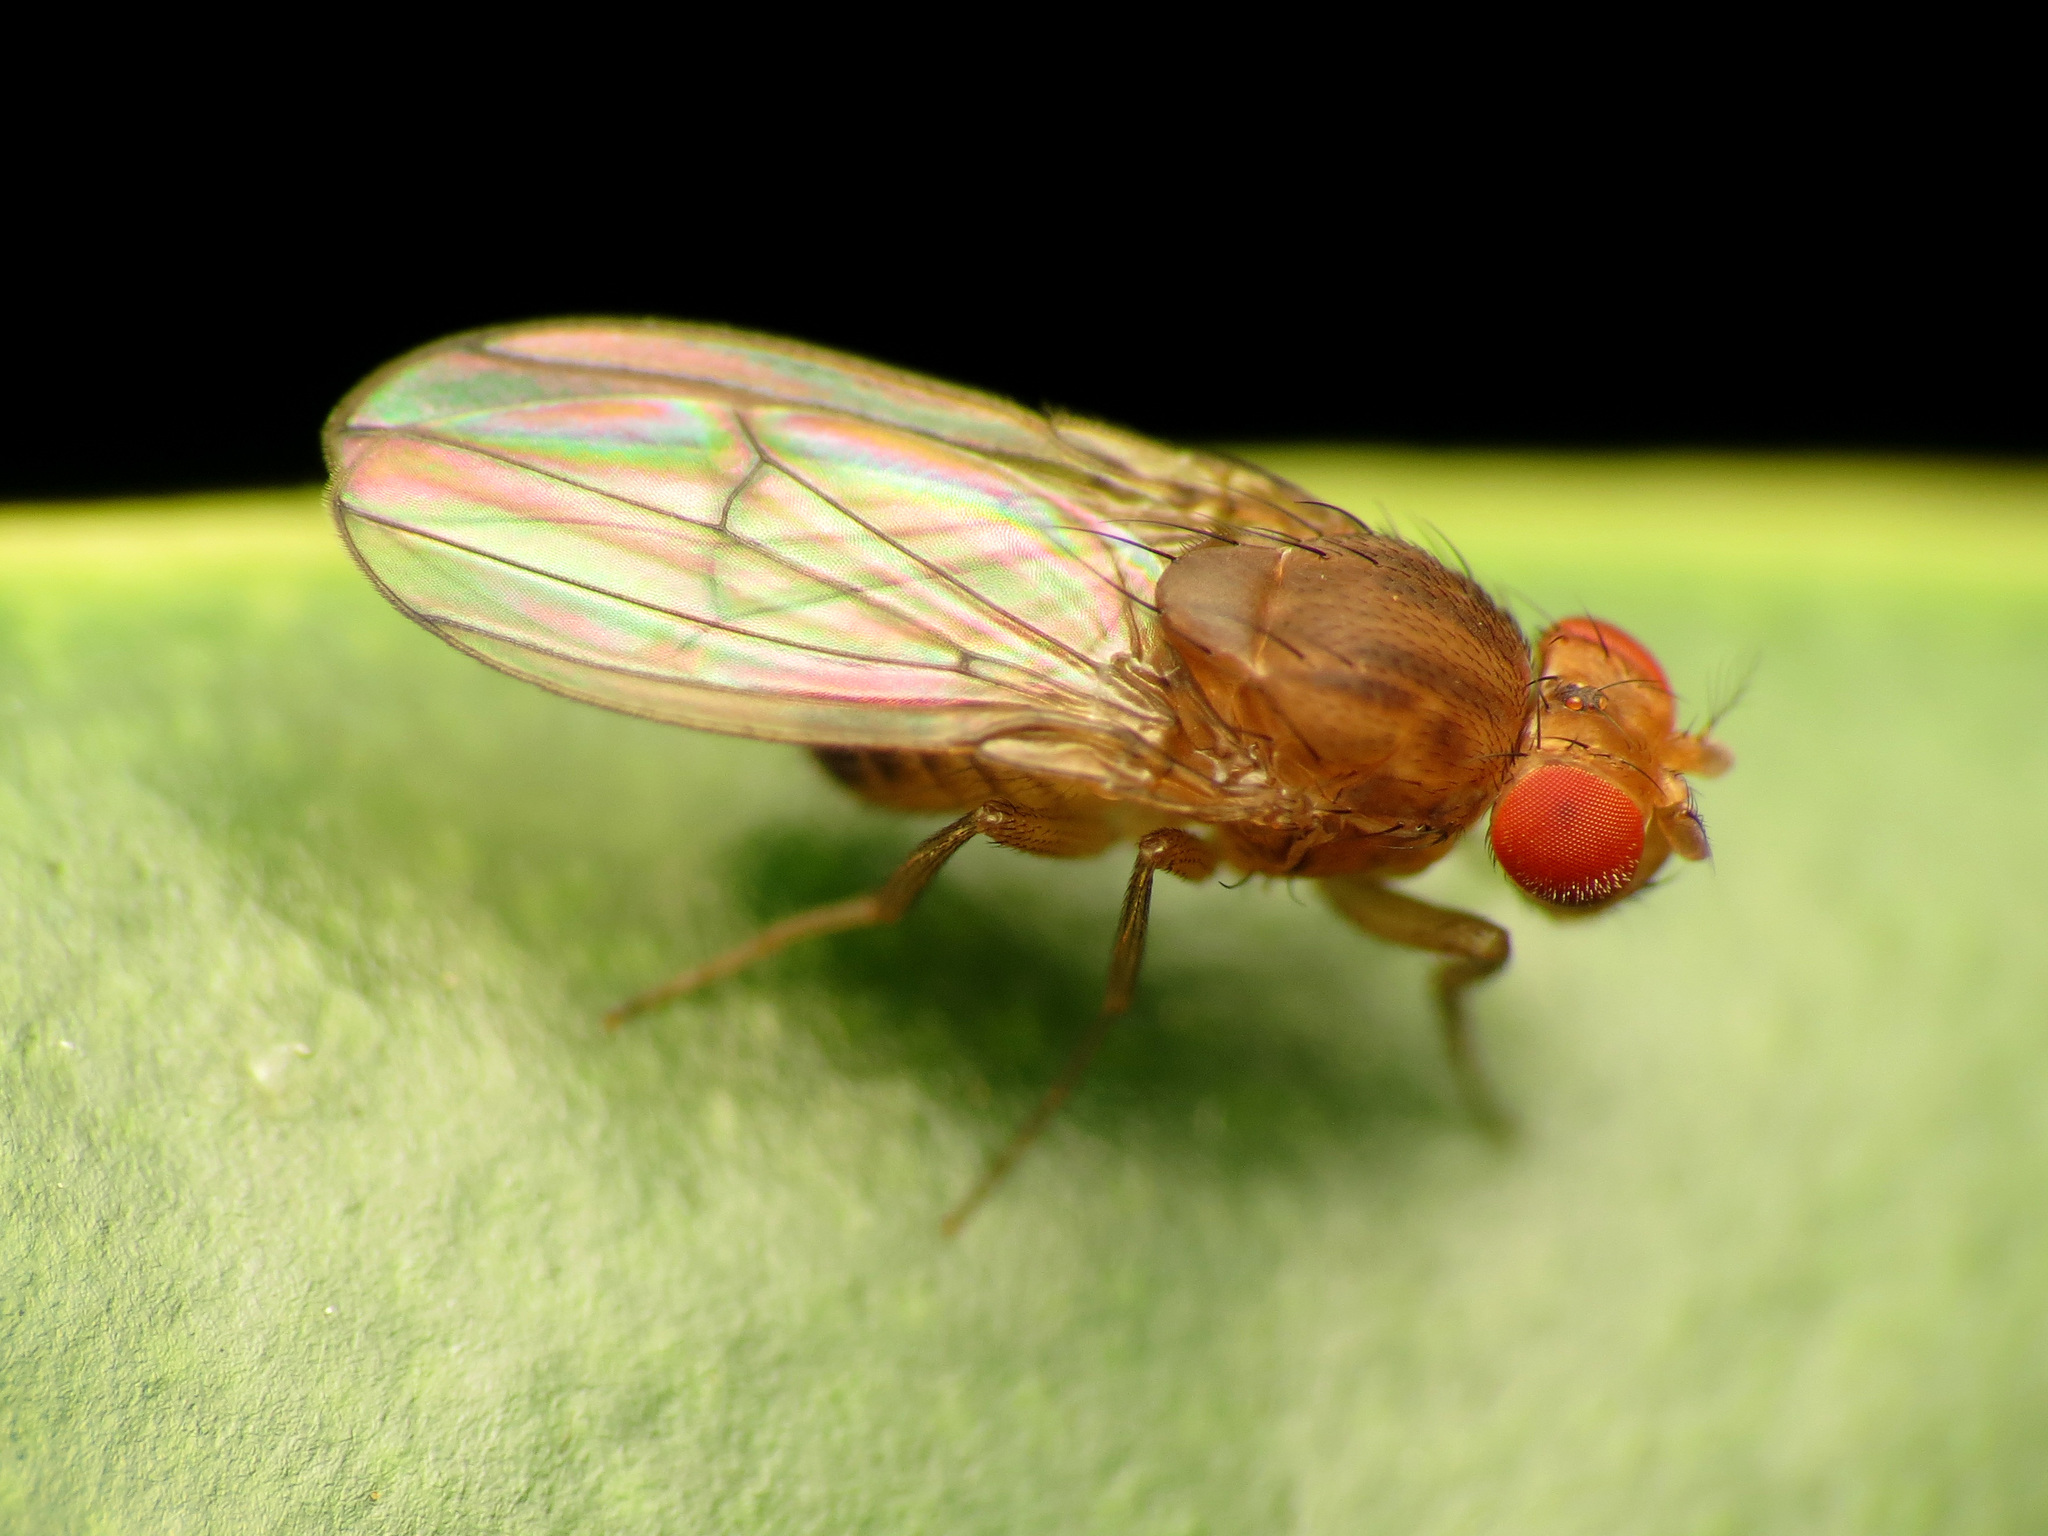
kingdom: Animalia
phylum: Arthropoda
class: Insecta
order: Diptera
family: Drosophilidae
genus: Drosophila
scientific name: Drosophila immigrans
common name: Pomace fly
